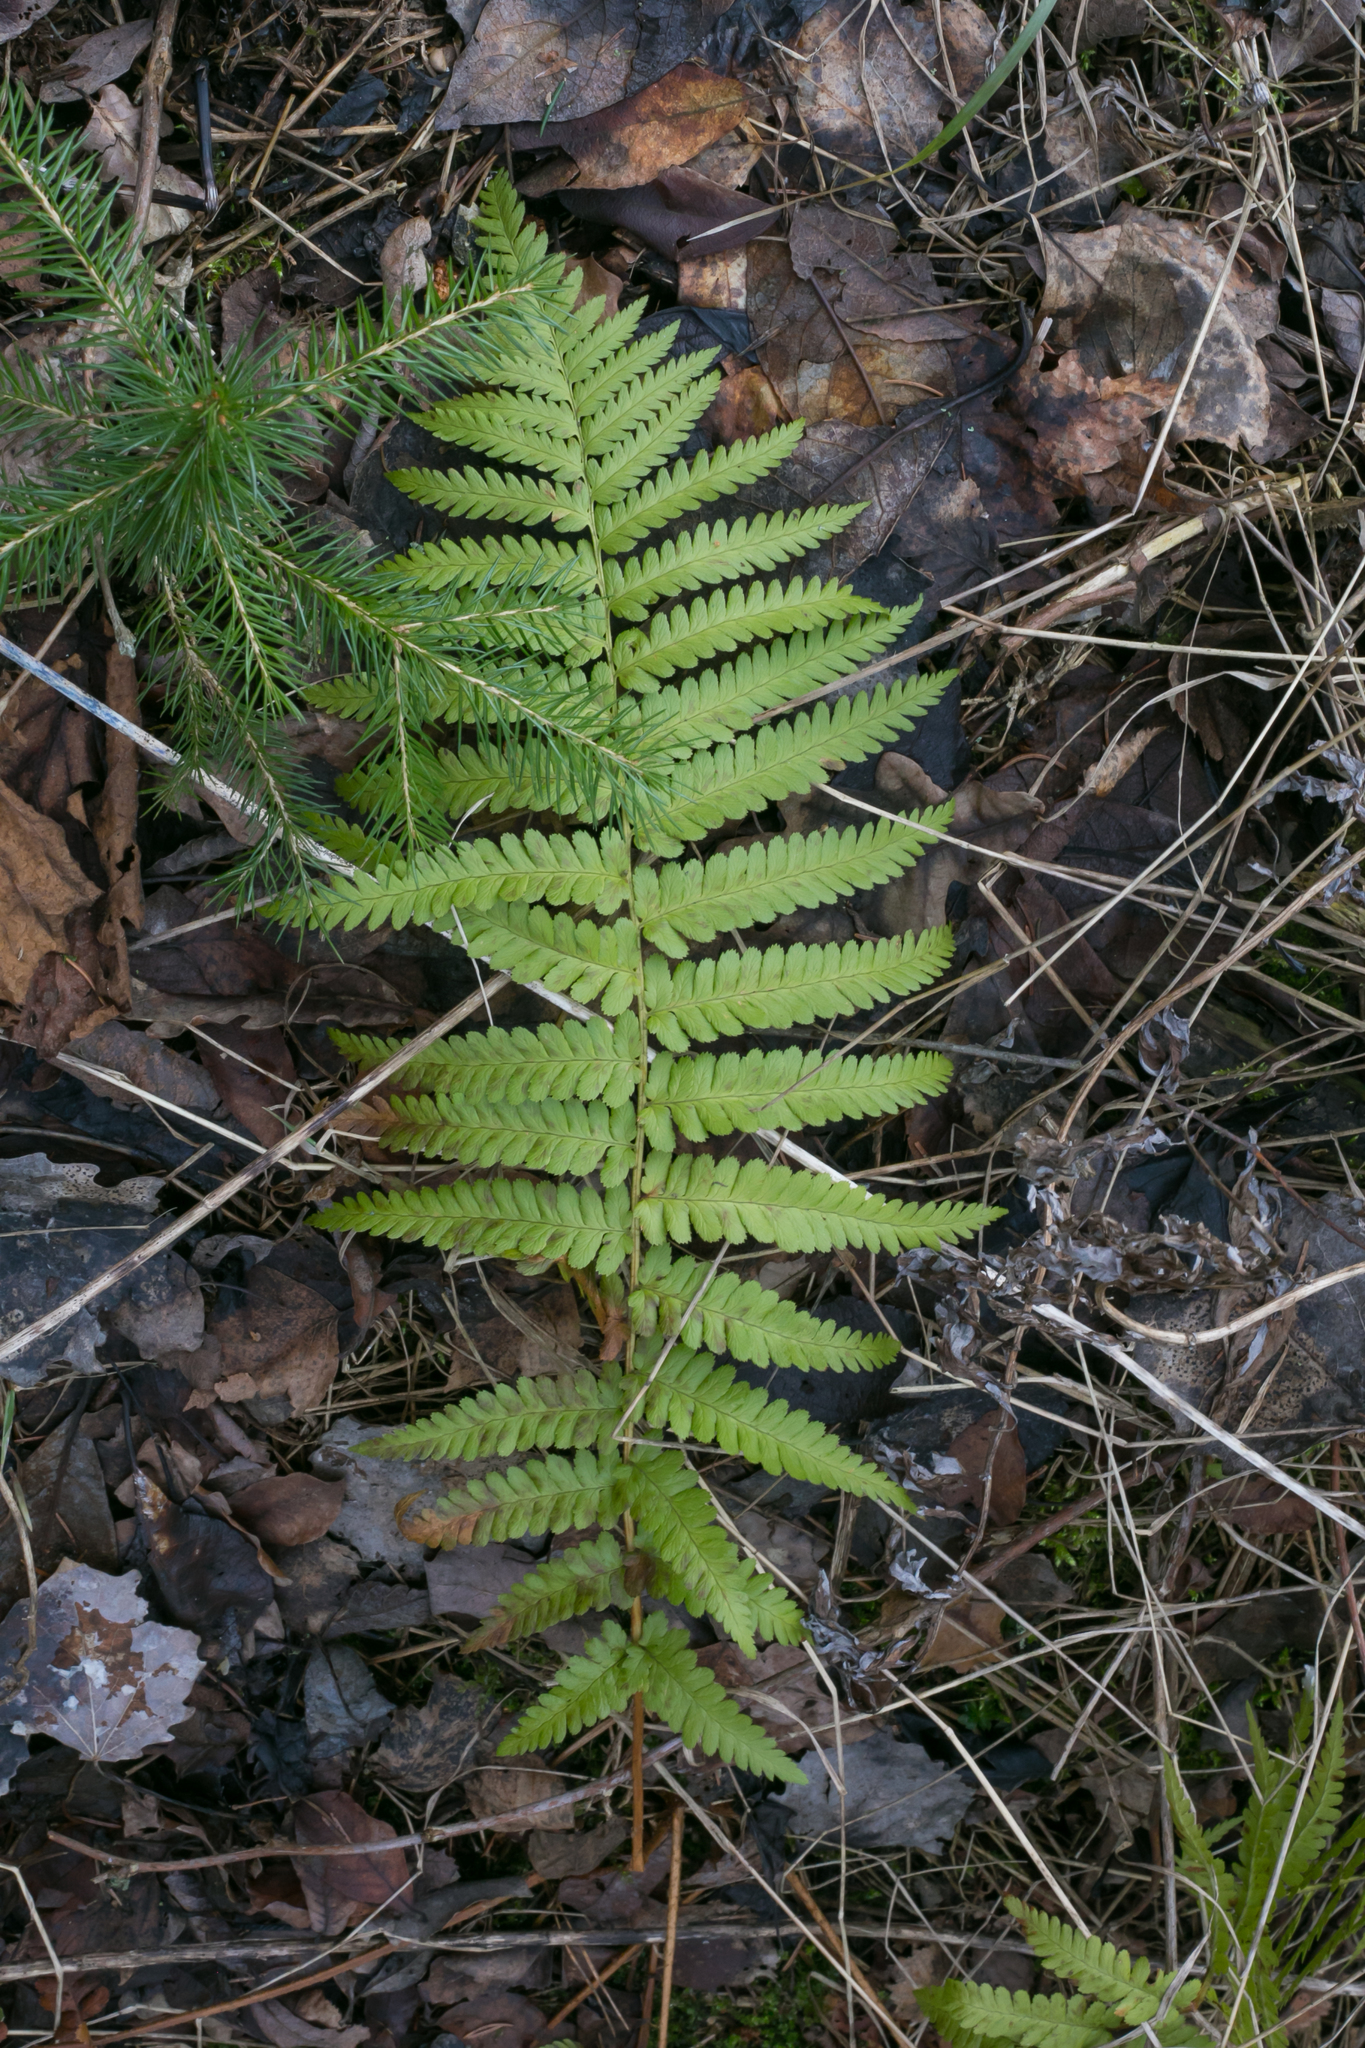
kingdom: Plantae
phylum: Tracheophyta
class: Polypodiopsida
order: Polypodiales
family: Dryopteridaceae
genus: Dryopteris
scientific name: Dryopteris filix-mas
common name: Male fern
